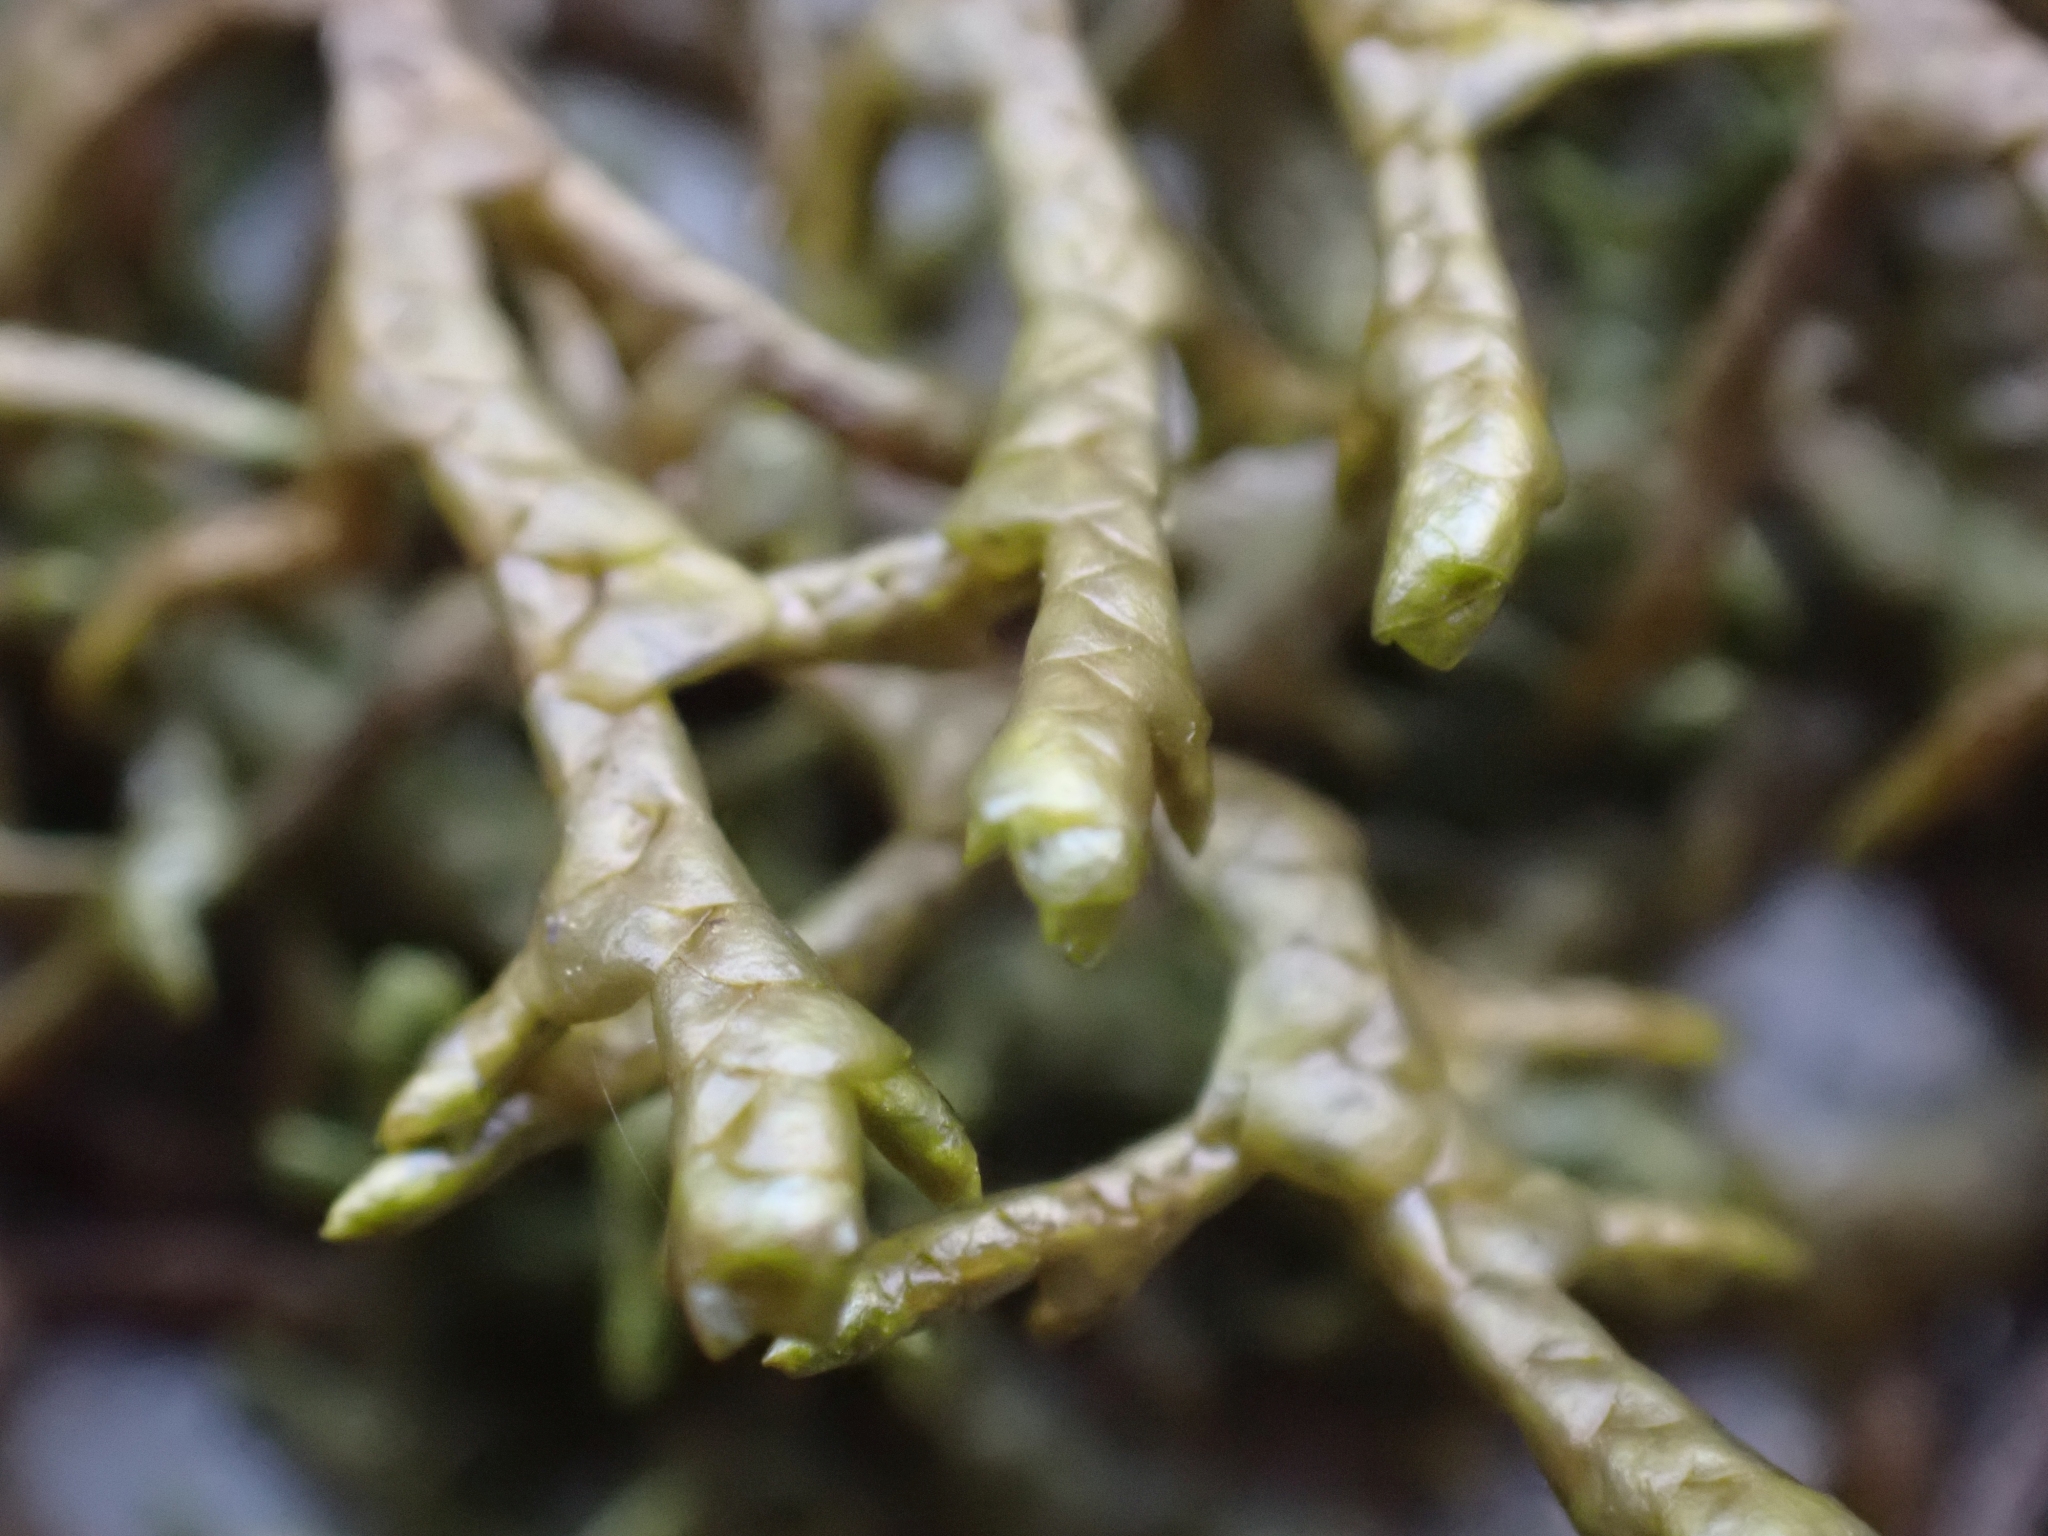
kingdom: Plantae
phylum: Marchantiophyta
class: Jungermanniopsida
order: Porellales
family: Porellaceae
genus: Porella
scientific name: Porella navicularis
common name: Tree ruffle liverwort
